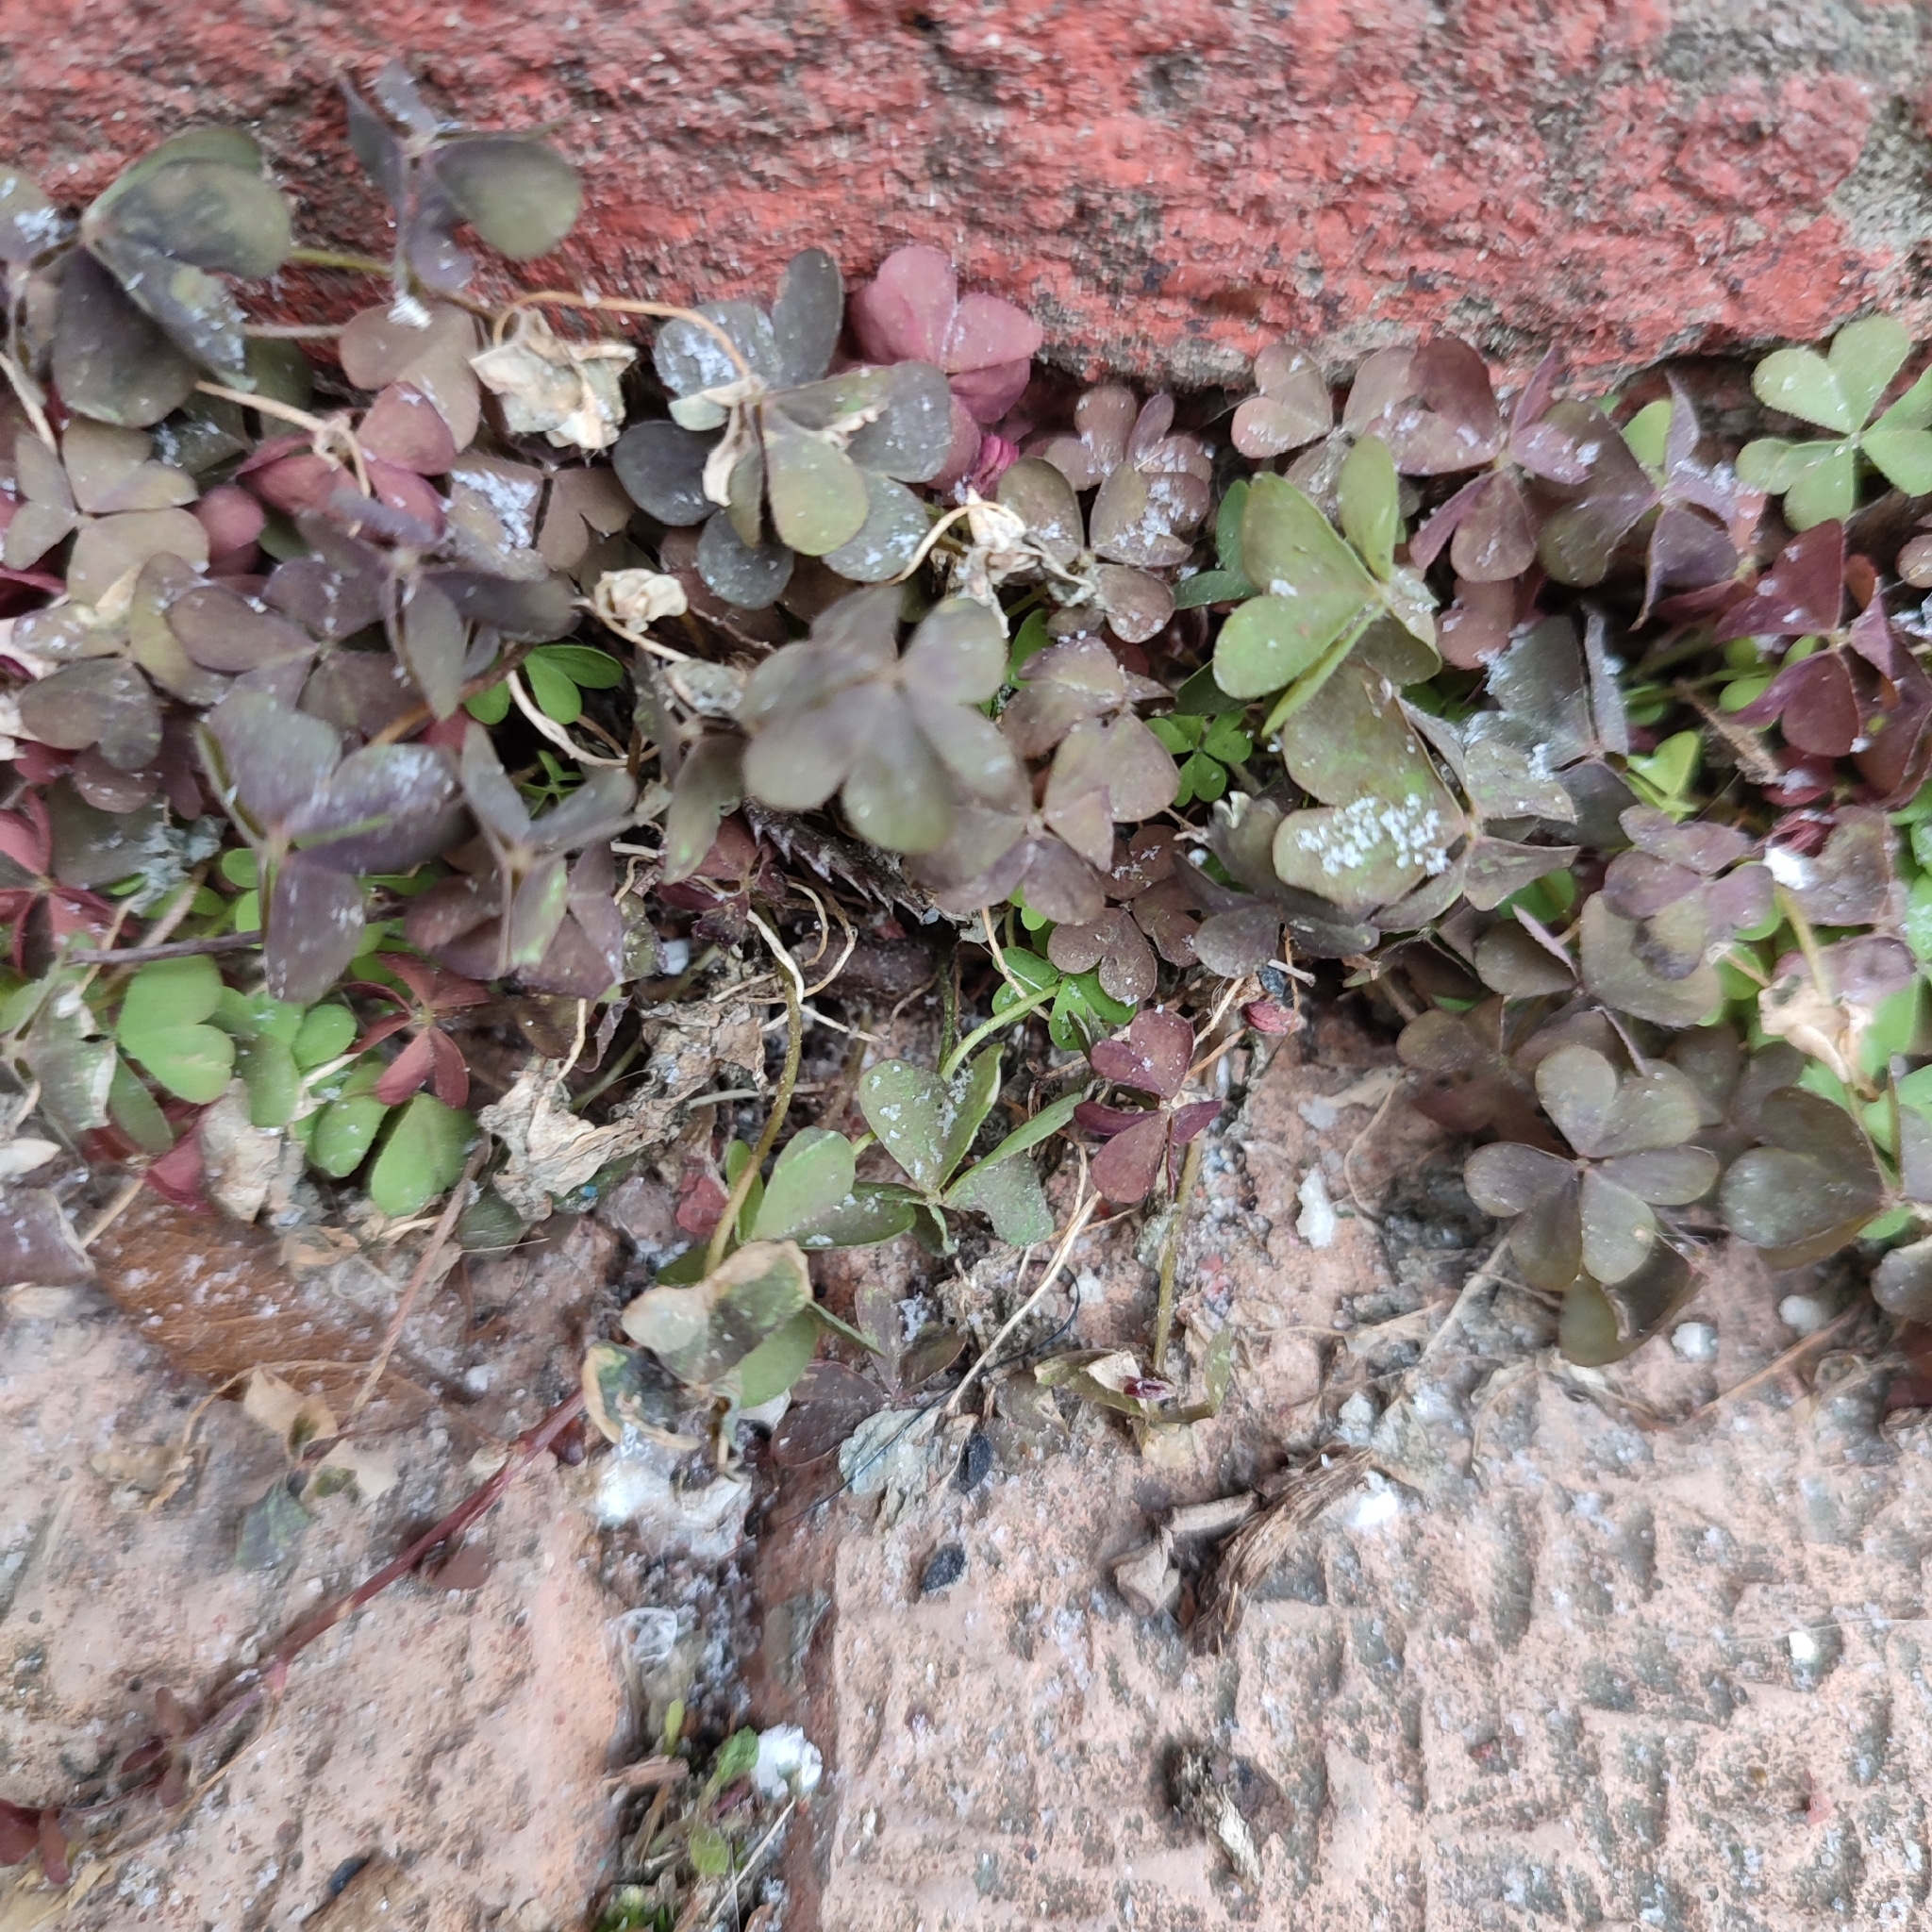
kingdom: Plantae
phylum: Tracheophyta
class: Magnoliopsida
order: Oxalidales
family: Oxalidaceae
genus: Oxalis
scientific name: Oxalis corniculata
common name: Procumbent yellow-sorrel
